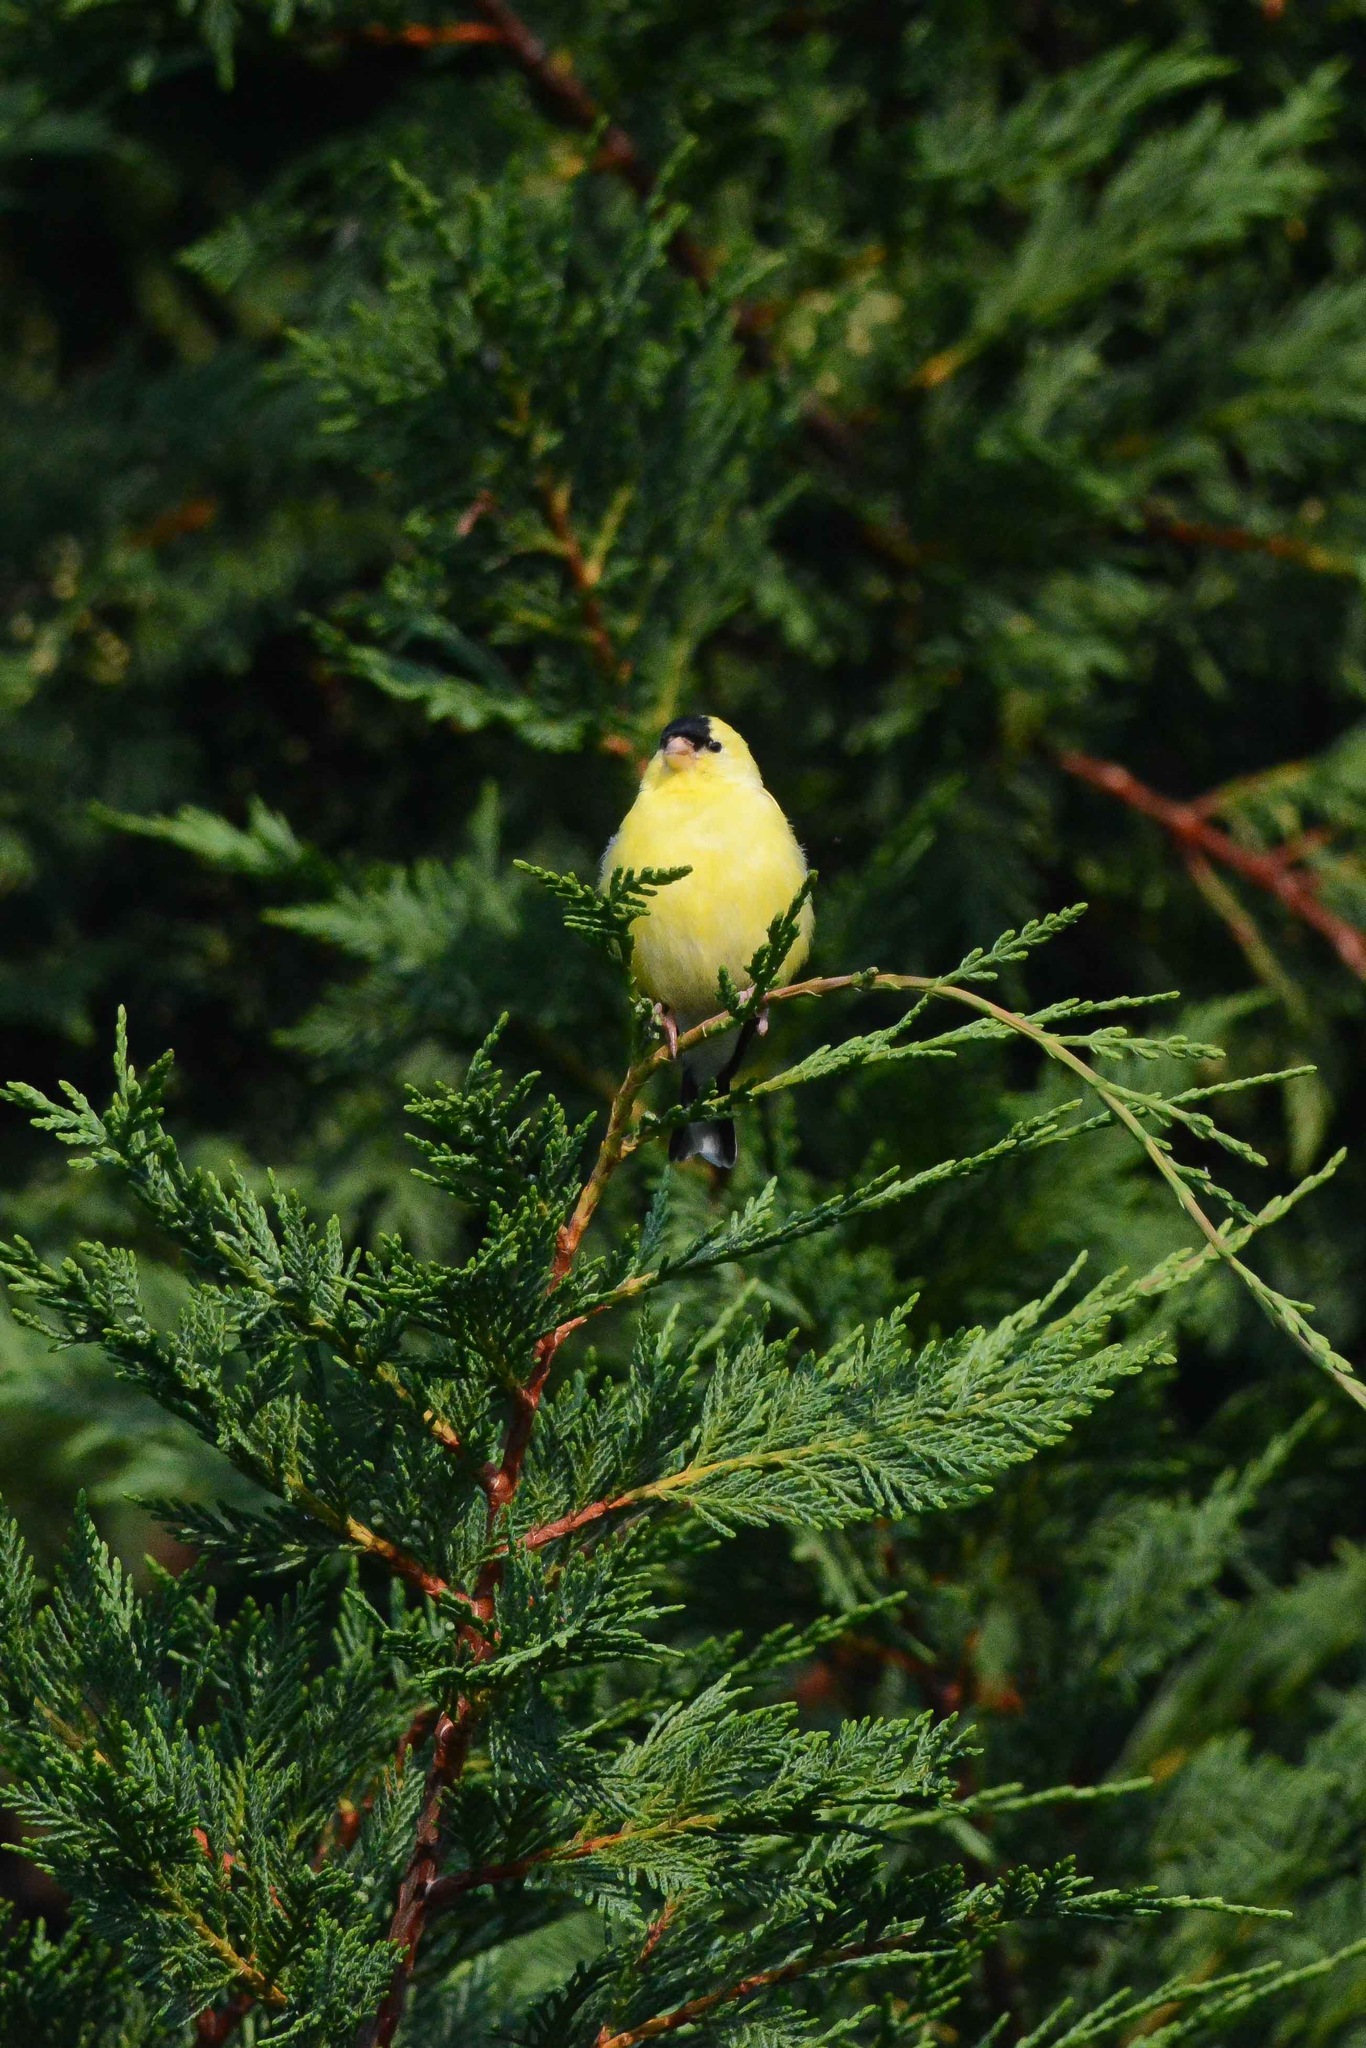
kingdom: Animalia
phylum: Chordata
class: Aves
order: Passeriformes
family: Fringillidae
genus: Spinus
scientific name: Spinus tristis
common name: American goldfinch
